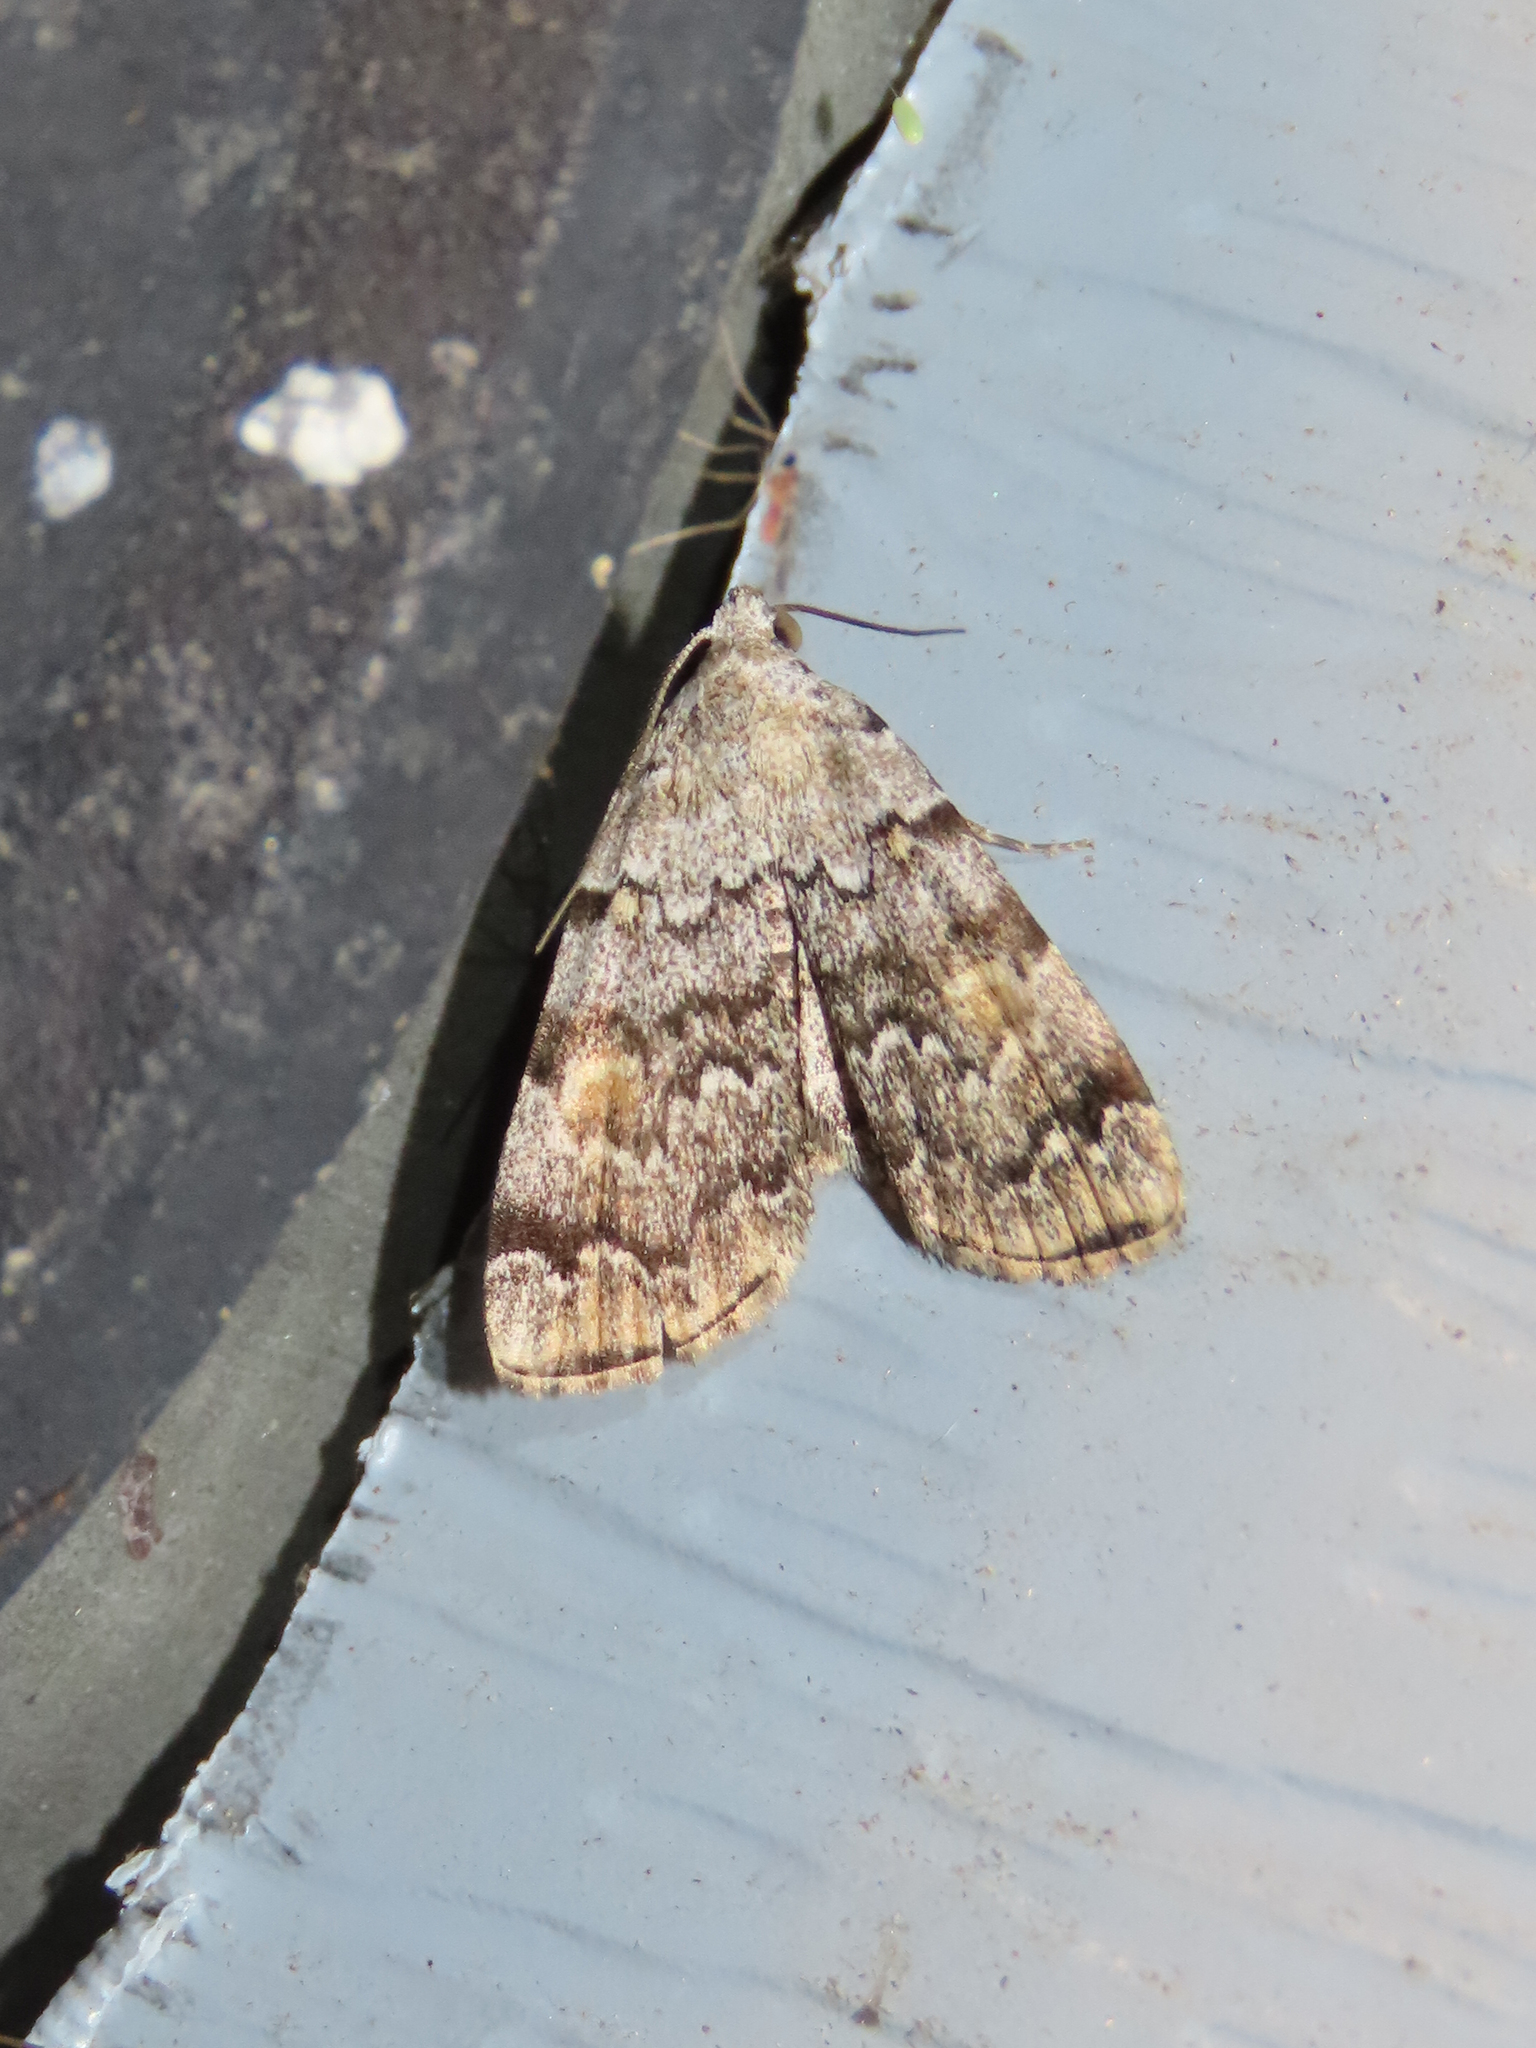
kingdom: Animalia
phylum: Arthropoda
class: Insecta
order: Lepidoptera
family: Erebidae
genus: Idia
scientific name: Idia americalis
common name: American idia moth
